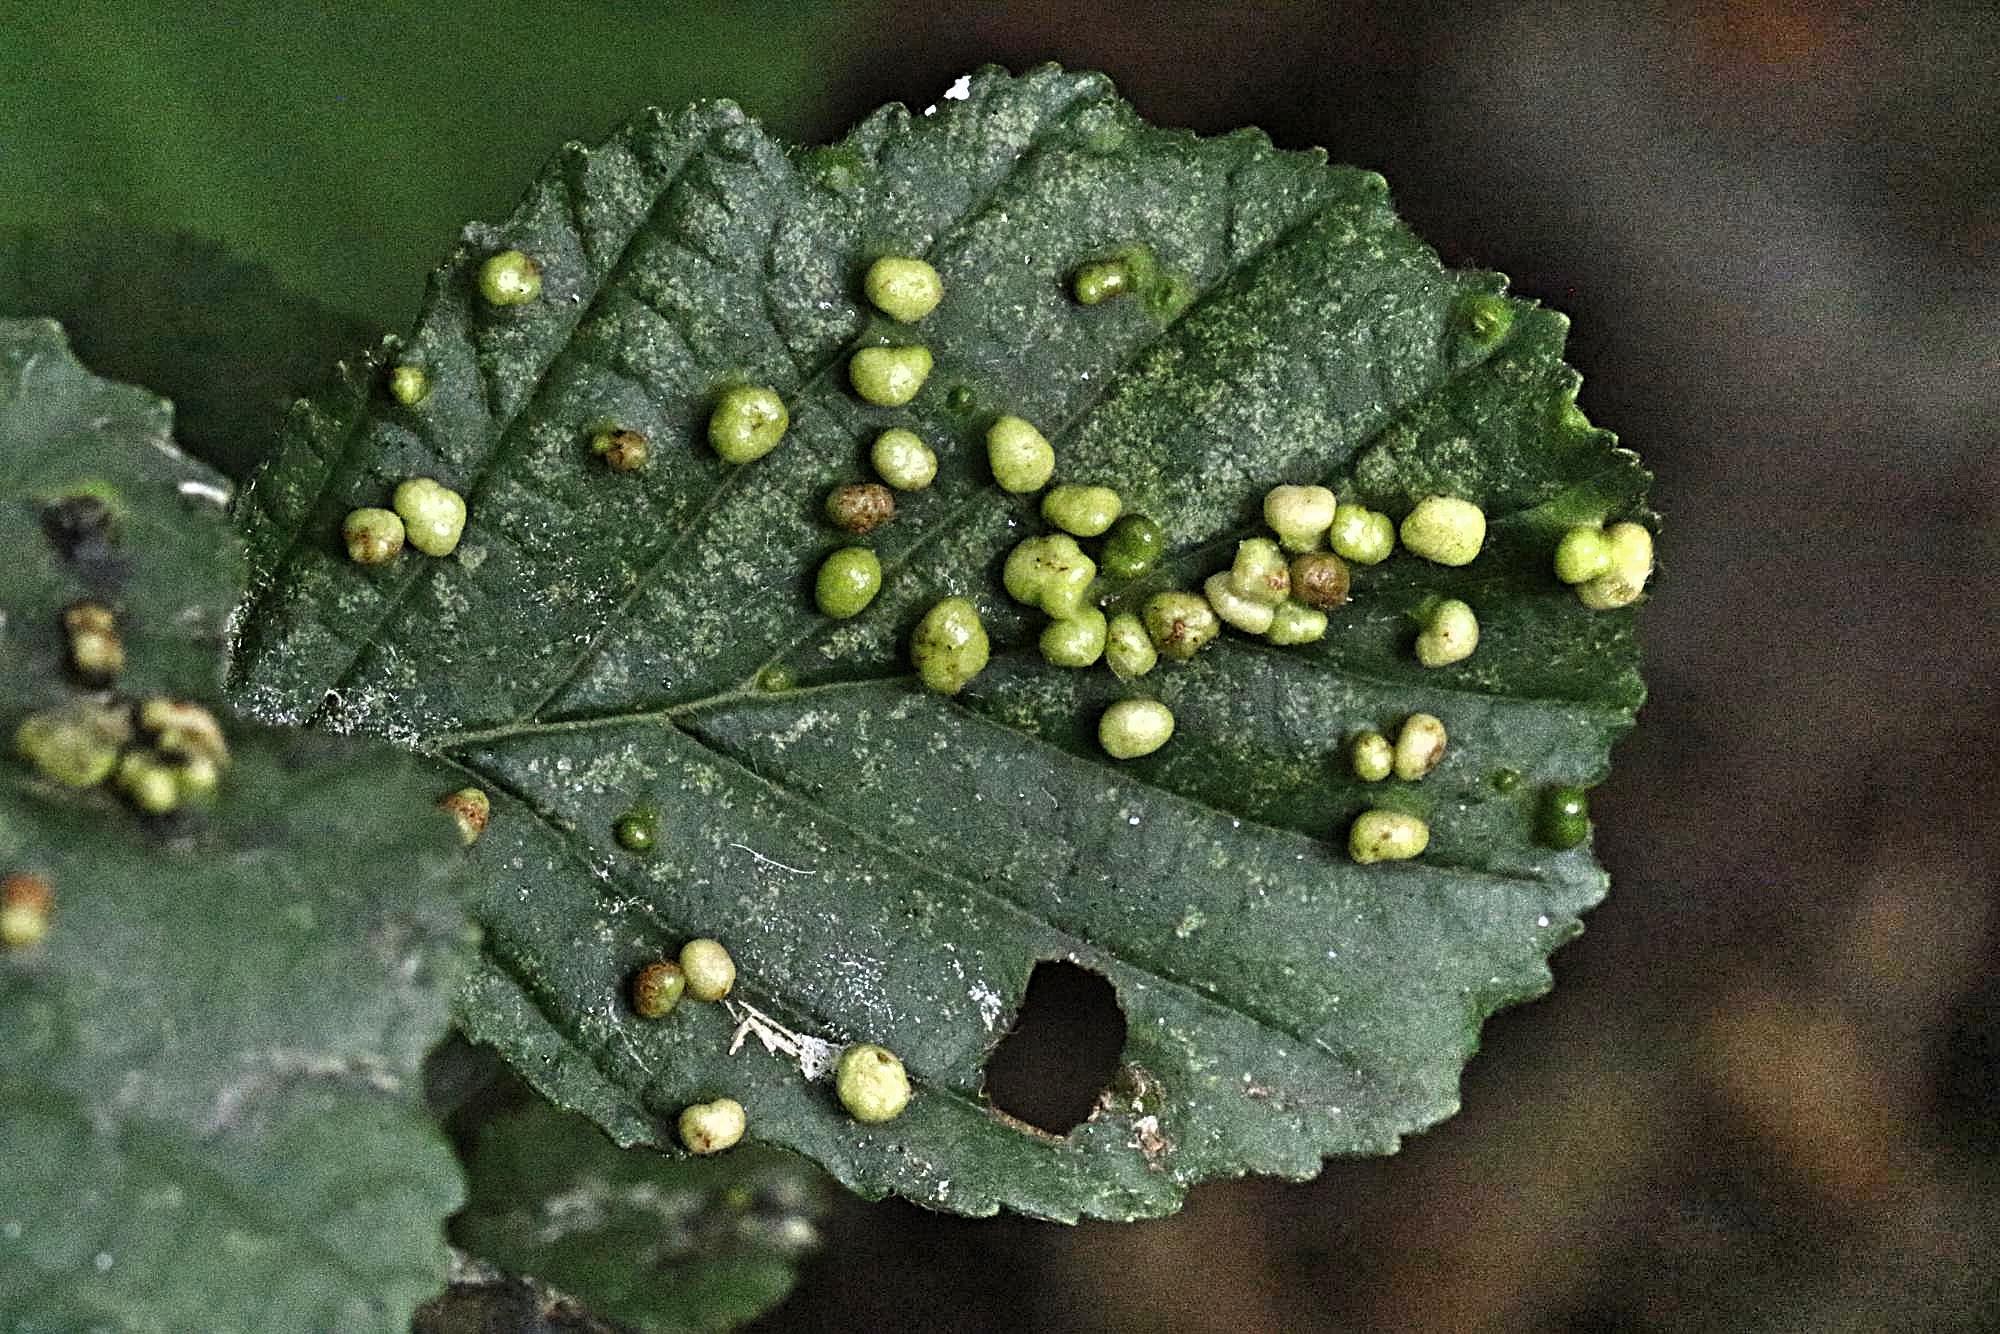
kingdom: Animalia
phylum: Arthropoda
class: Arachnida
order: Trombidiformes
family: Eriophyidae
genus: Eriophyes
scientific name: Eriophyes laevis
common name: Alder leaf gall mite
